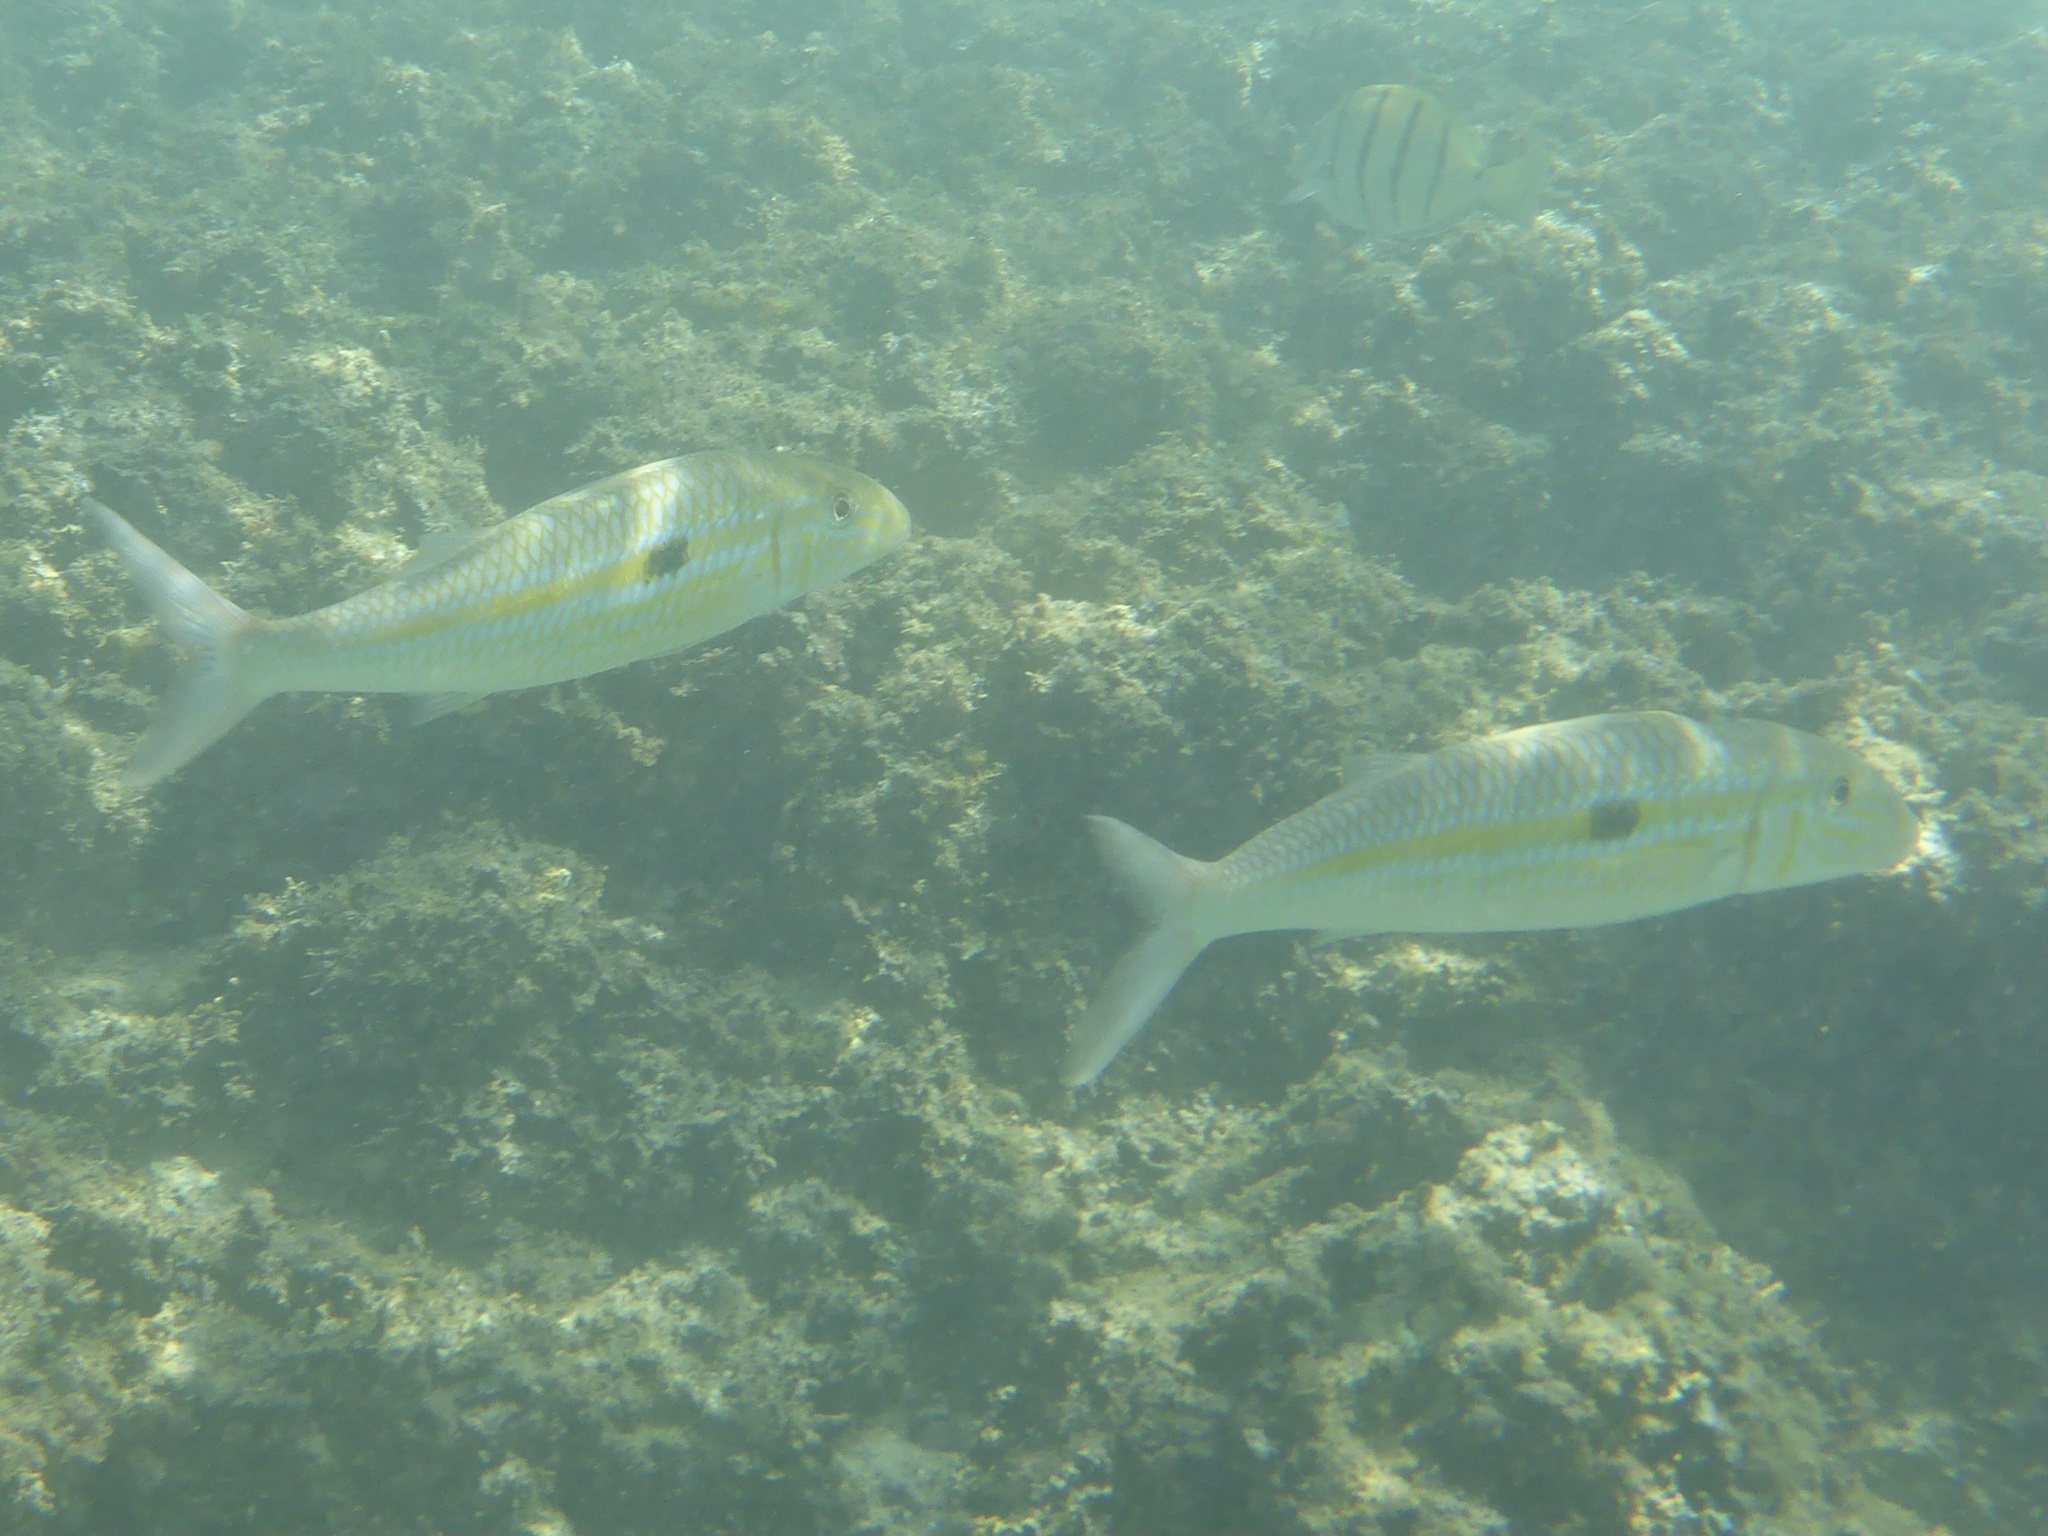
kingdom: Animalia
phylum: Chordata
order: Perciformes
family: Mullidae
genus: Mulloidichthys
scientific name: Mulloidichthys flavolineatus
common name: Yellowstripe goatfish
